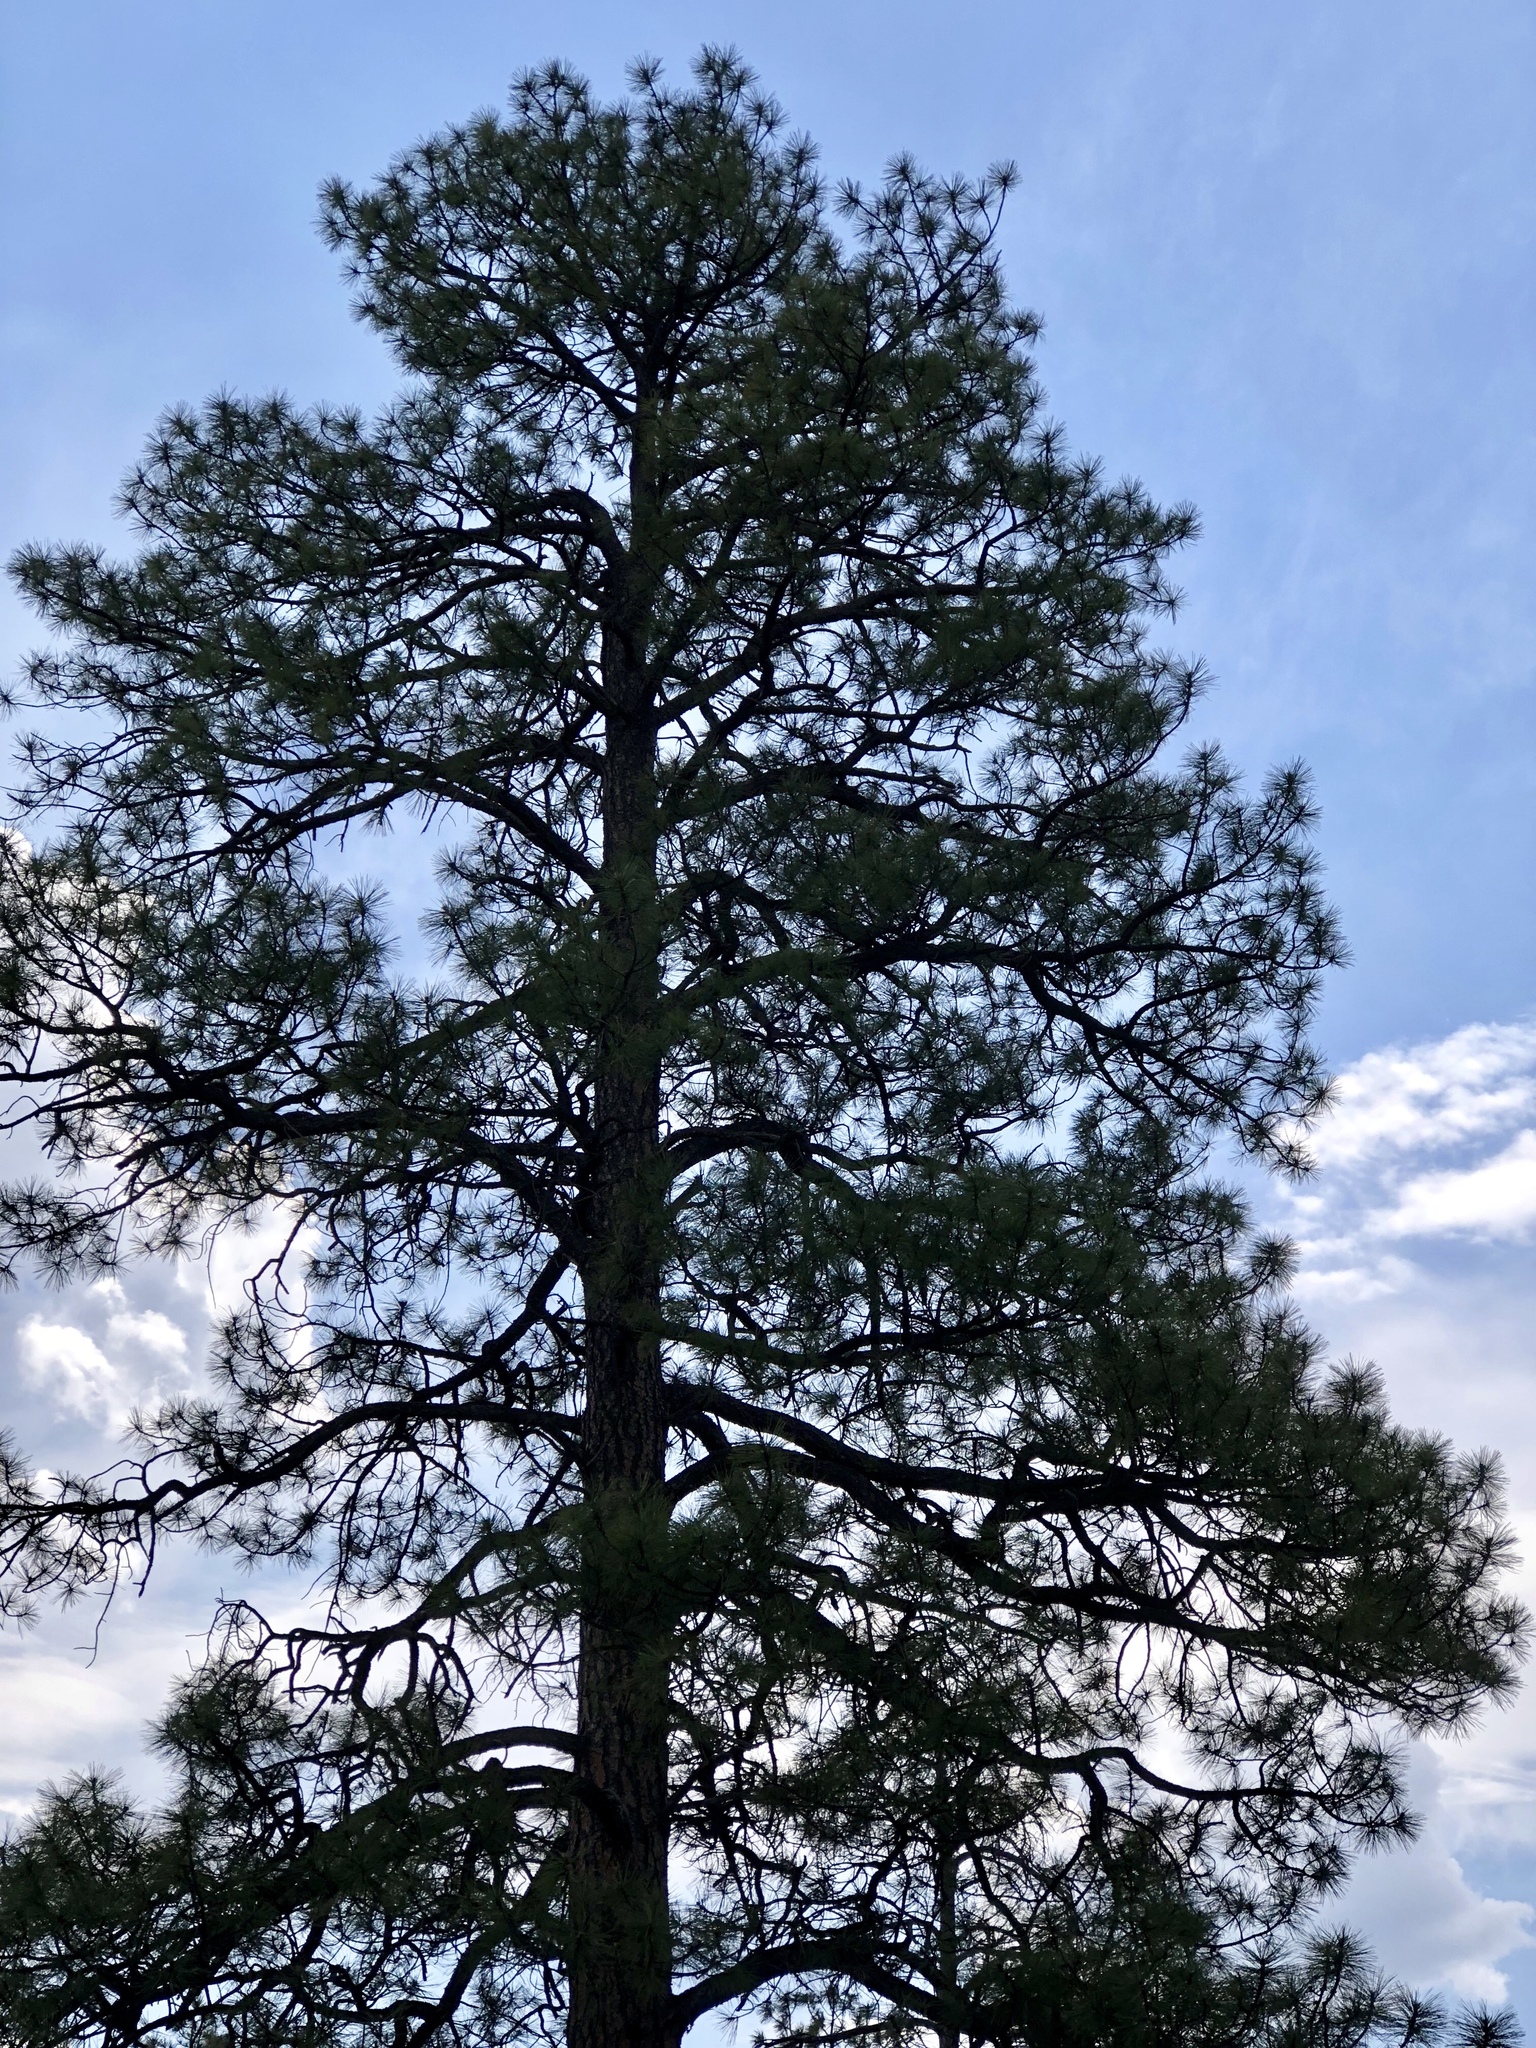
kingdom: Plantae
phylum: Tracheophyta
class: Pinopsida
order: Pinales
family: Pinaceae
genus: Pinus
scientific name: Pinus ponderosa
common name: Western yellow-pine
